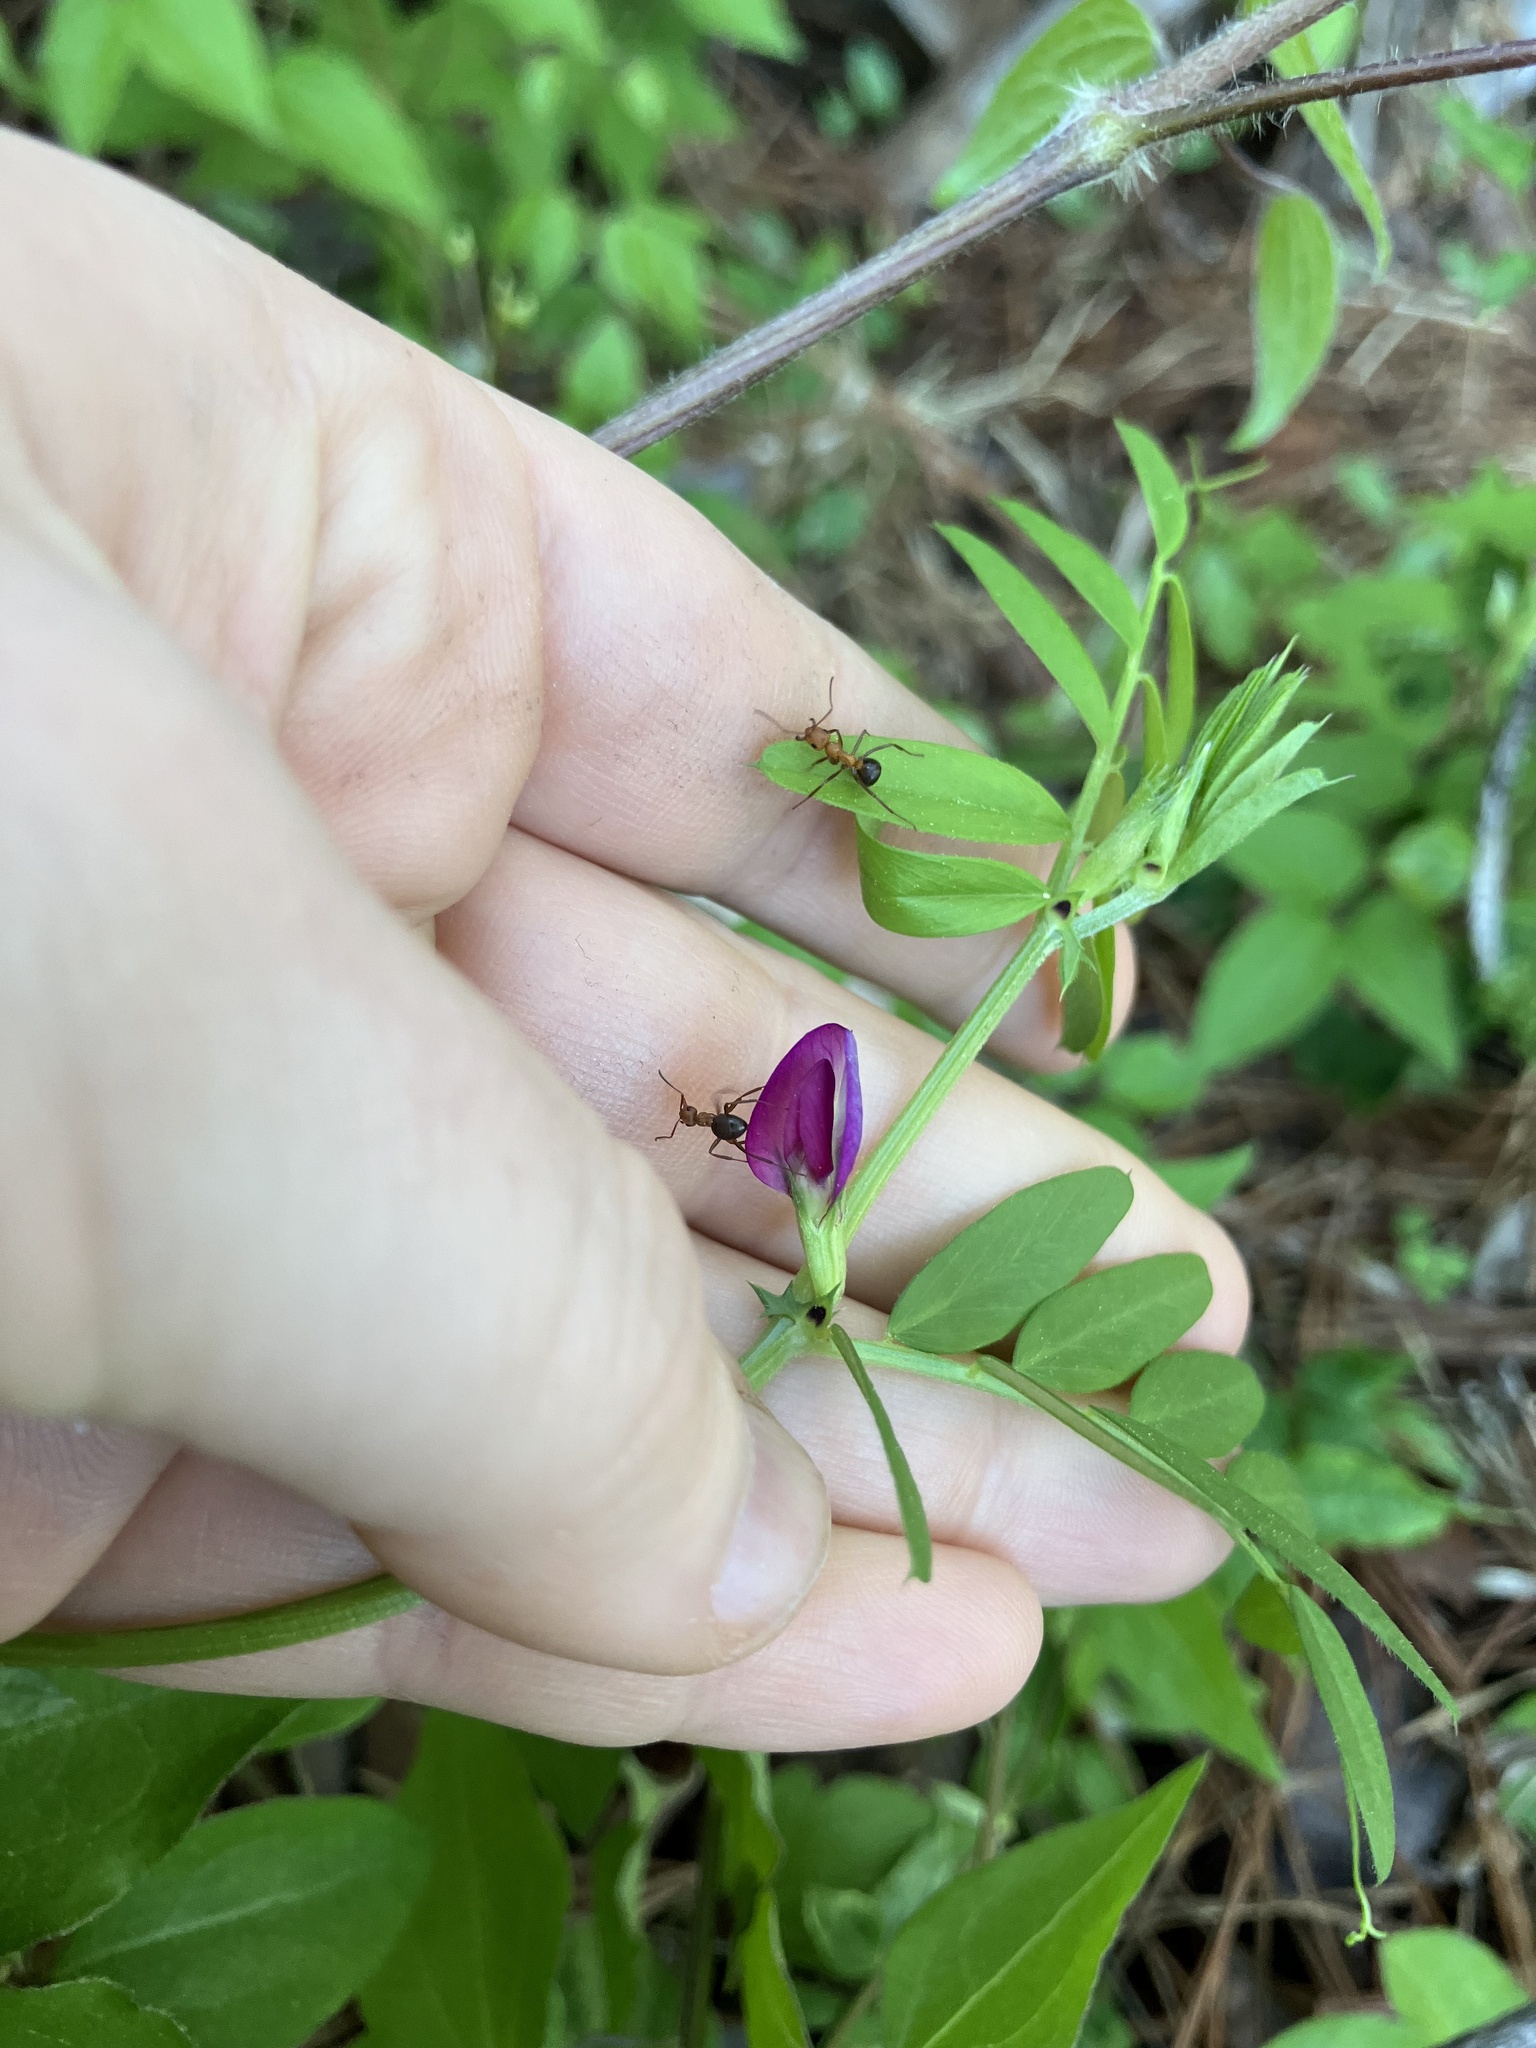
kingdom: Plantae
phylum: Tracheophyta
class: Magnoliopsida
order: Fabales
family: Fabaceae
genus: Vicia
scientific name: Vicia sativa
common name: Garden vetch
